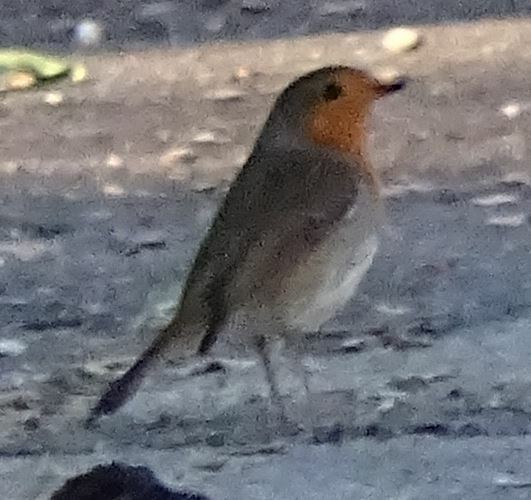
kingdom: Animalia
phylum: Chordata
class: Aves
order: Passeriformes
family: Muscicapidae
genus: Erithacus
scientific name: Erithacus rubecula
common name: European robin
